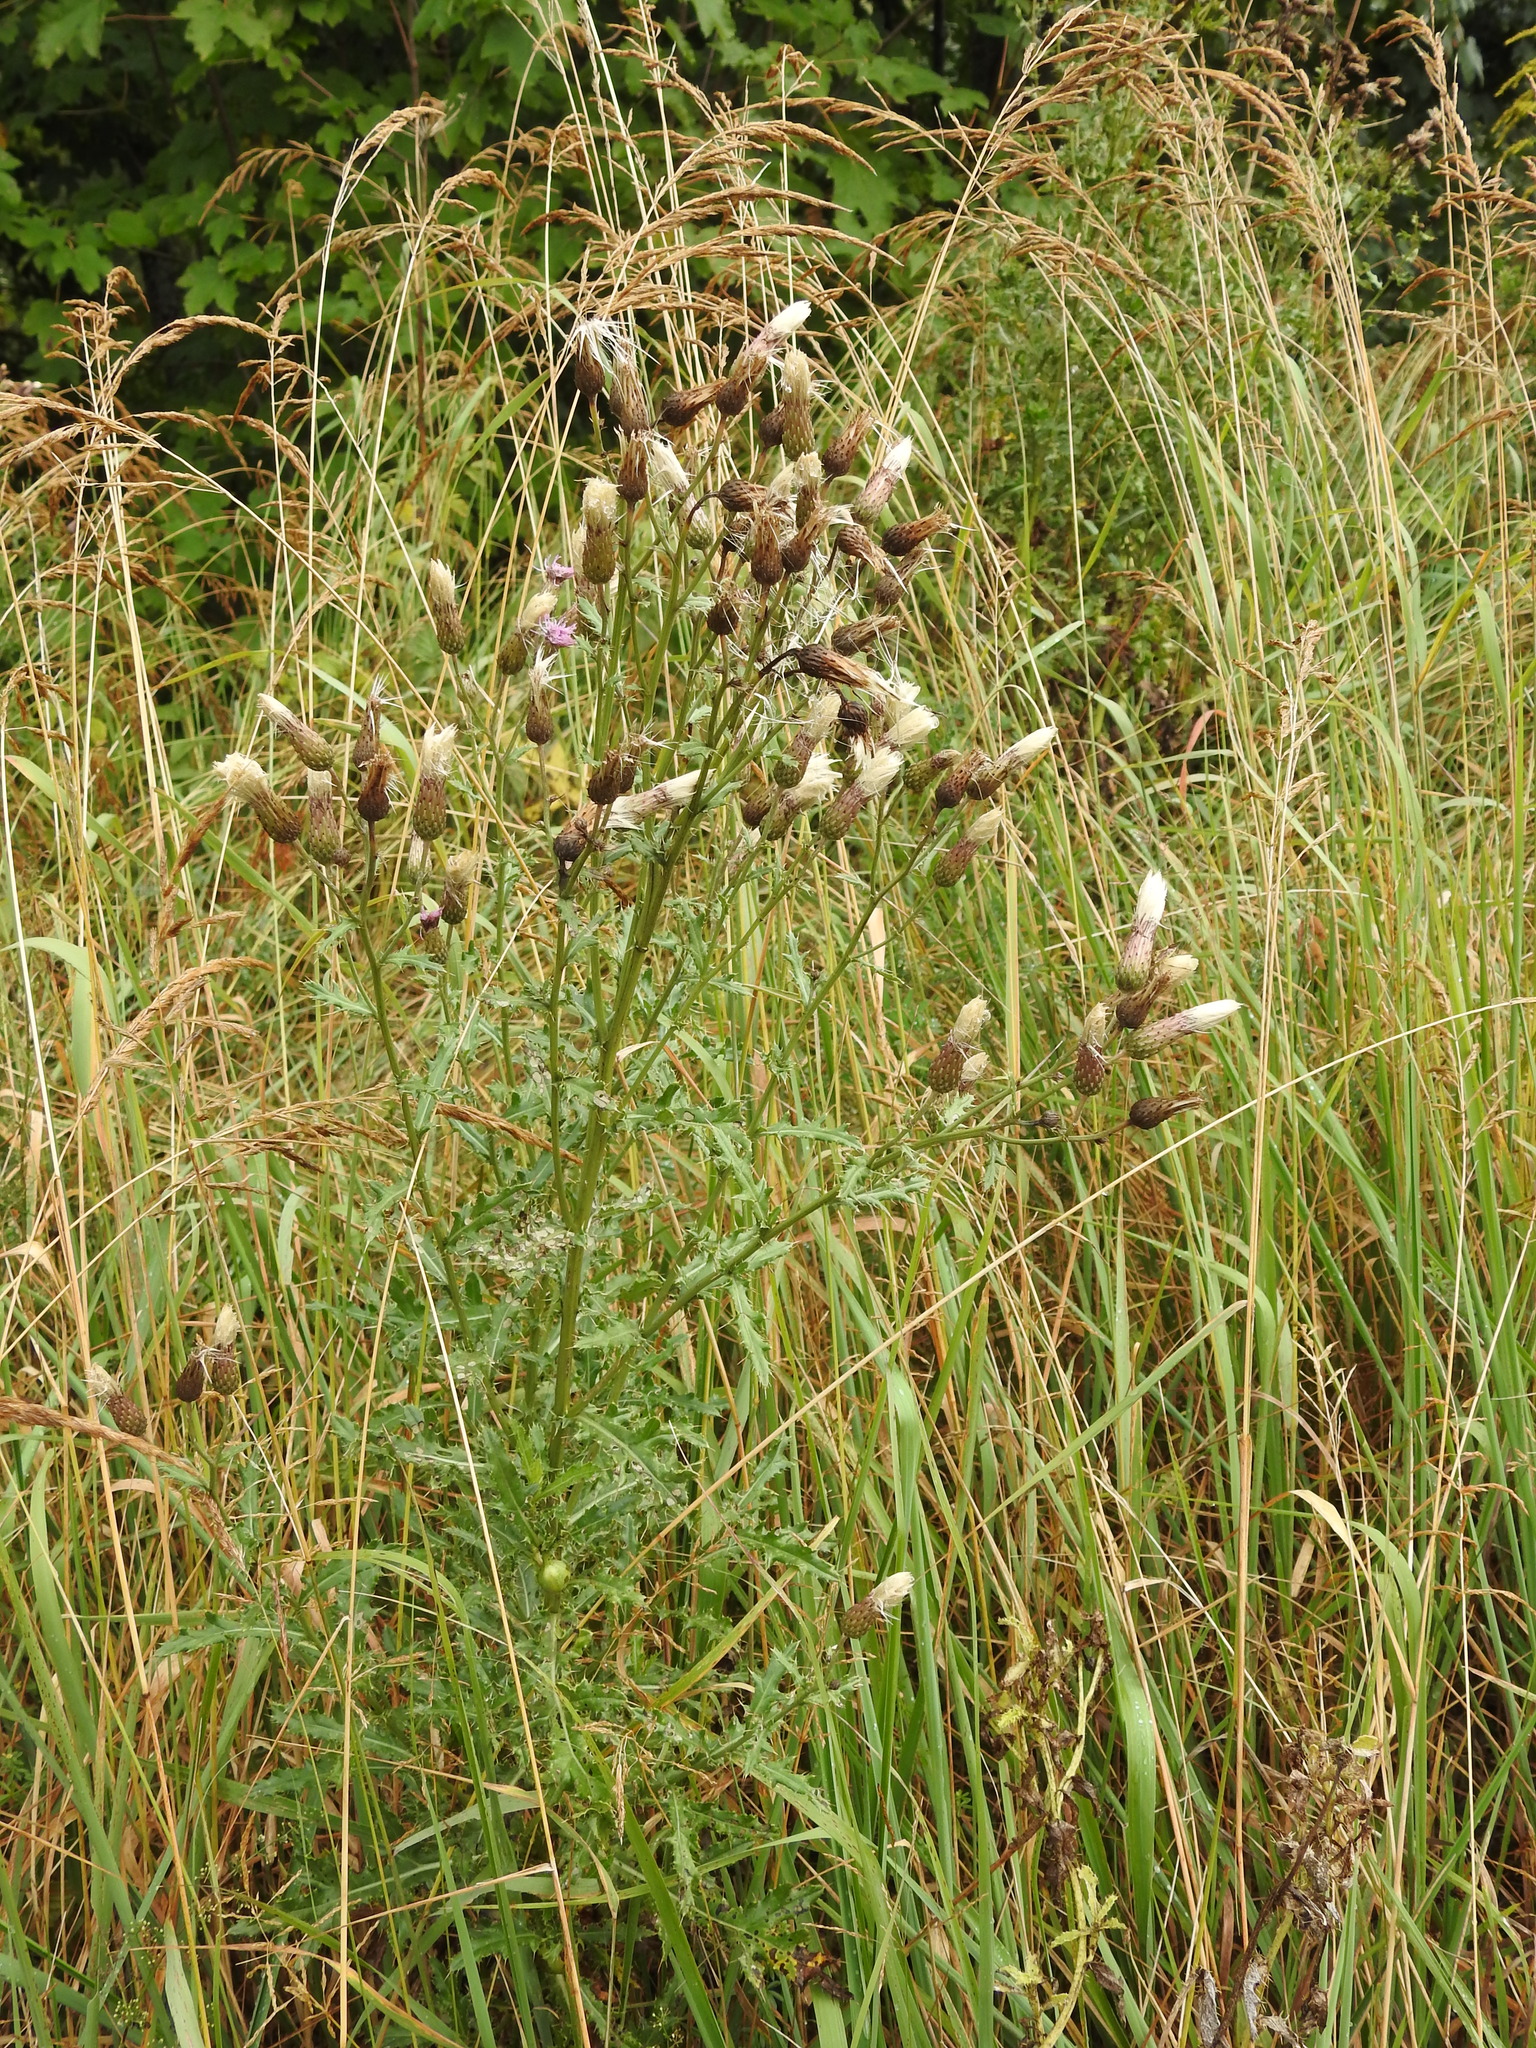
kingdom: Plantae
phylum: Tracheophyta
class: Magnoliopsida
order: Asterales
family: Asteraceae
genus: Cirsium
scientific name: Cirsium arvense
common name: Creeping thistle
